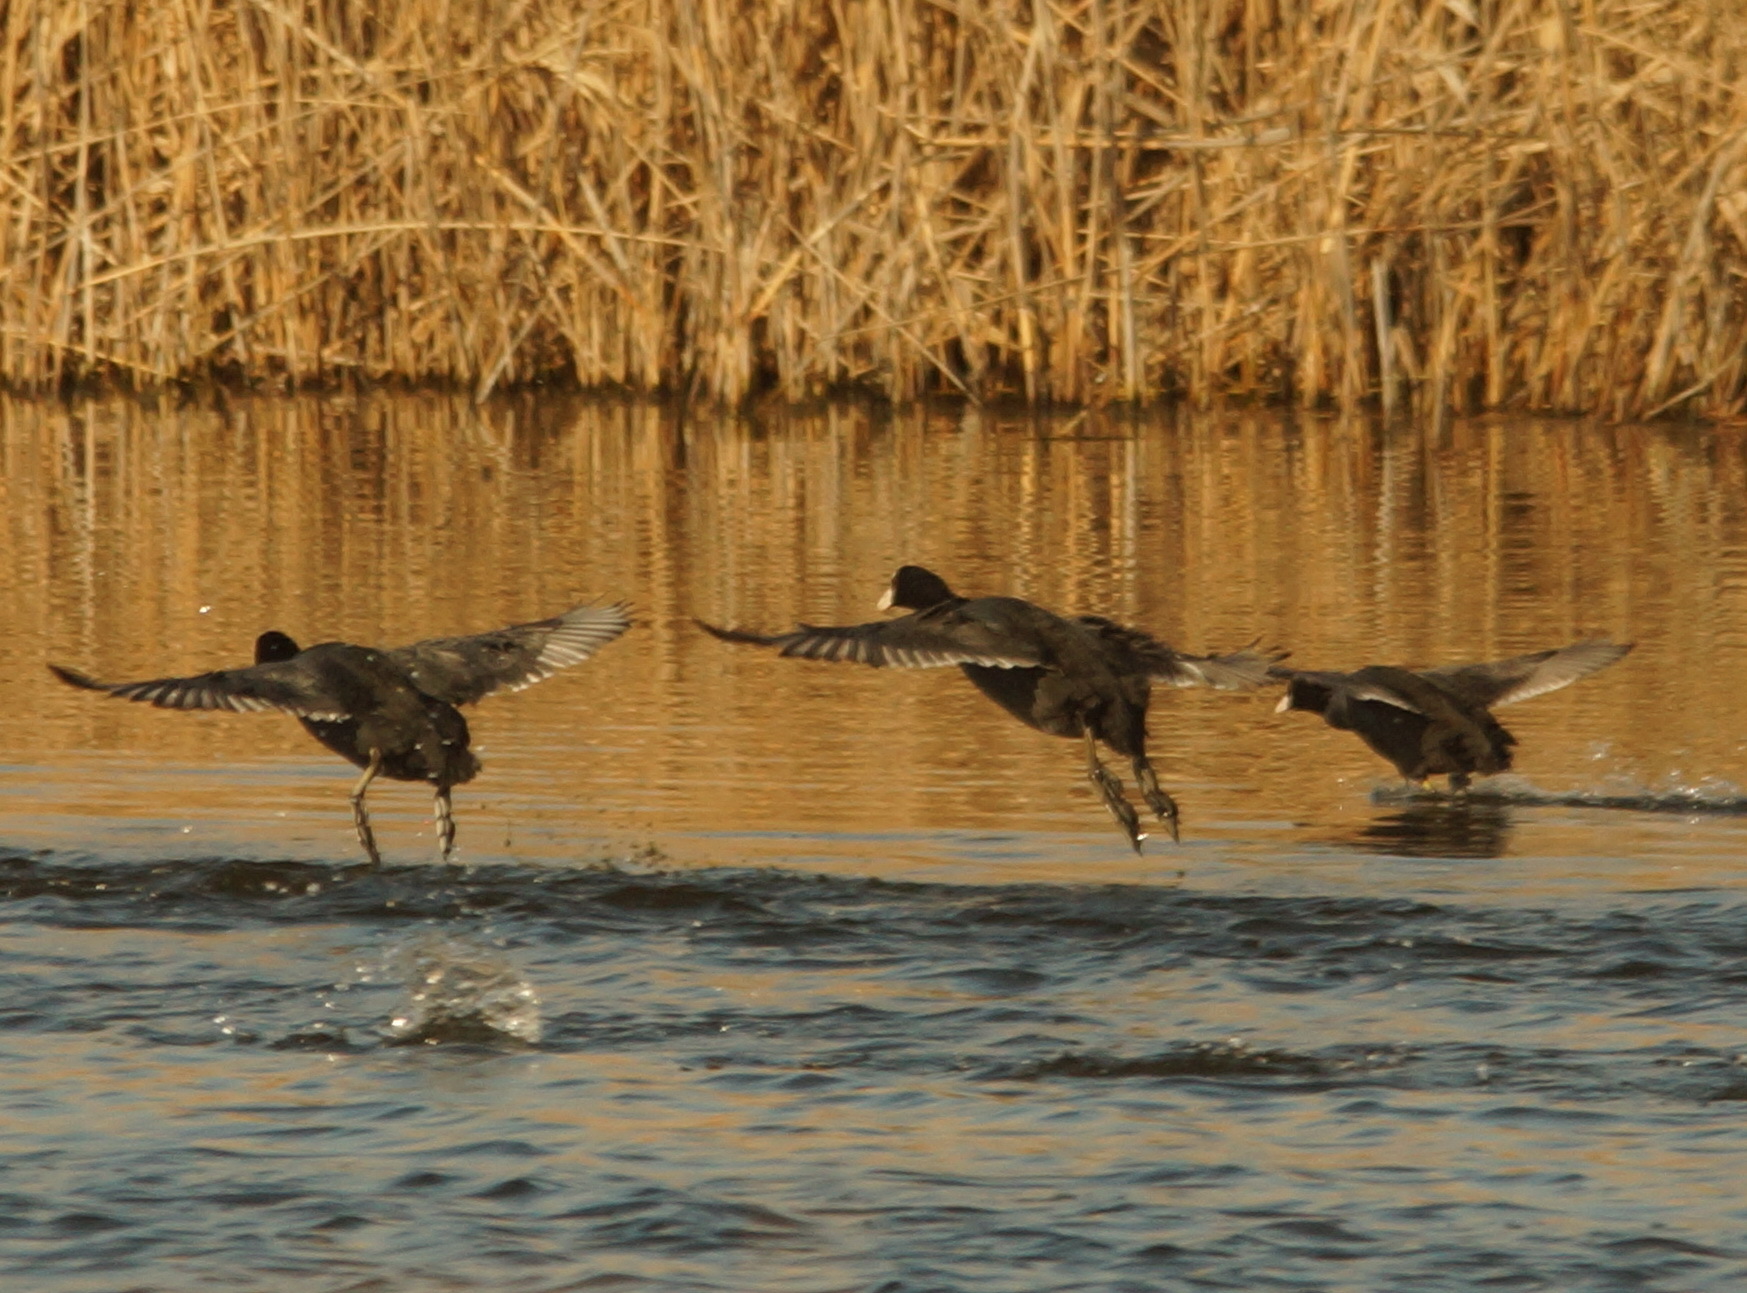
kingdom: Animalia
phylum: Chordata
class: Aves
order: Gruiformes
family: Rallidae
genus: Fulica
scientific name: Fulica atra
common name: Eurasian coot
